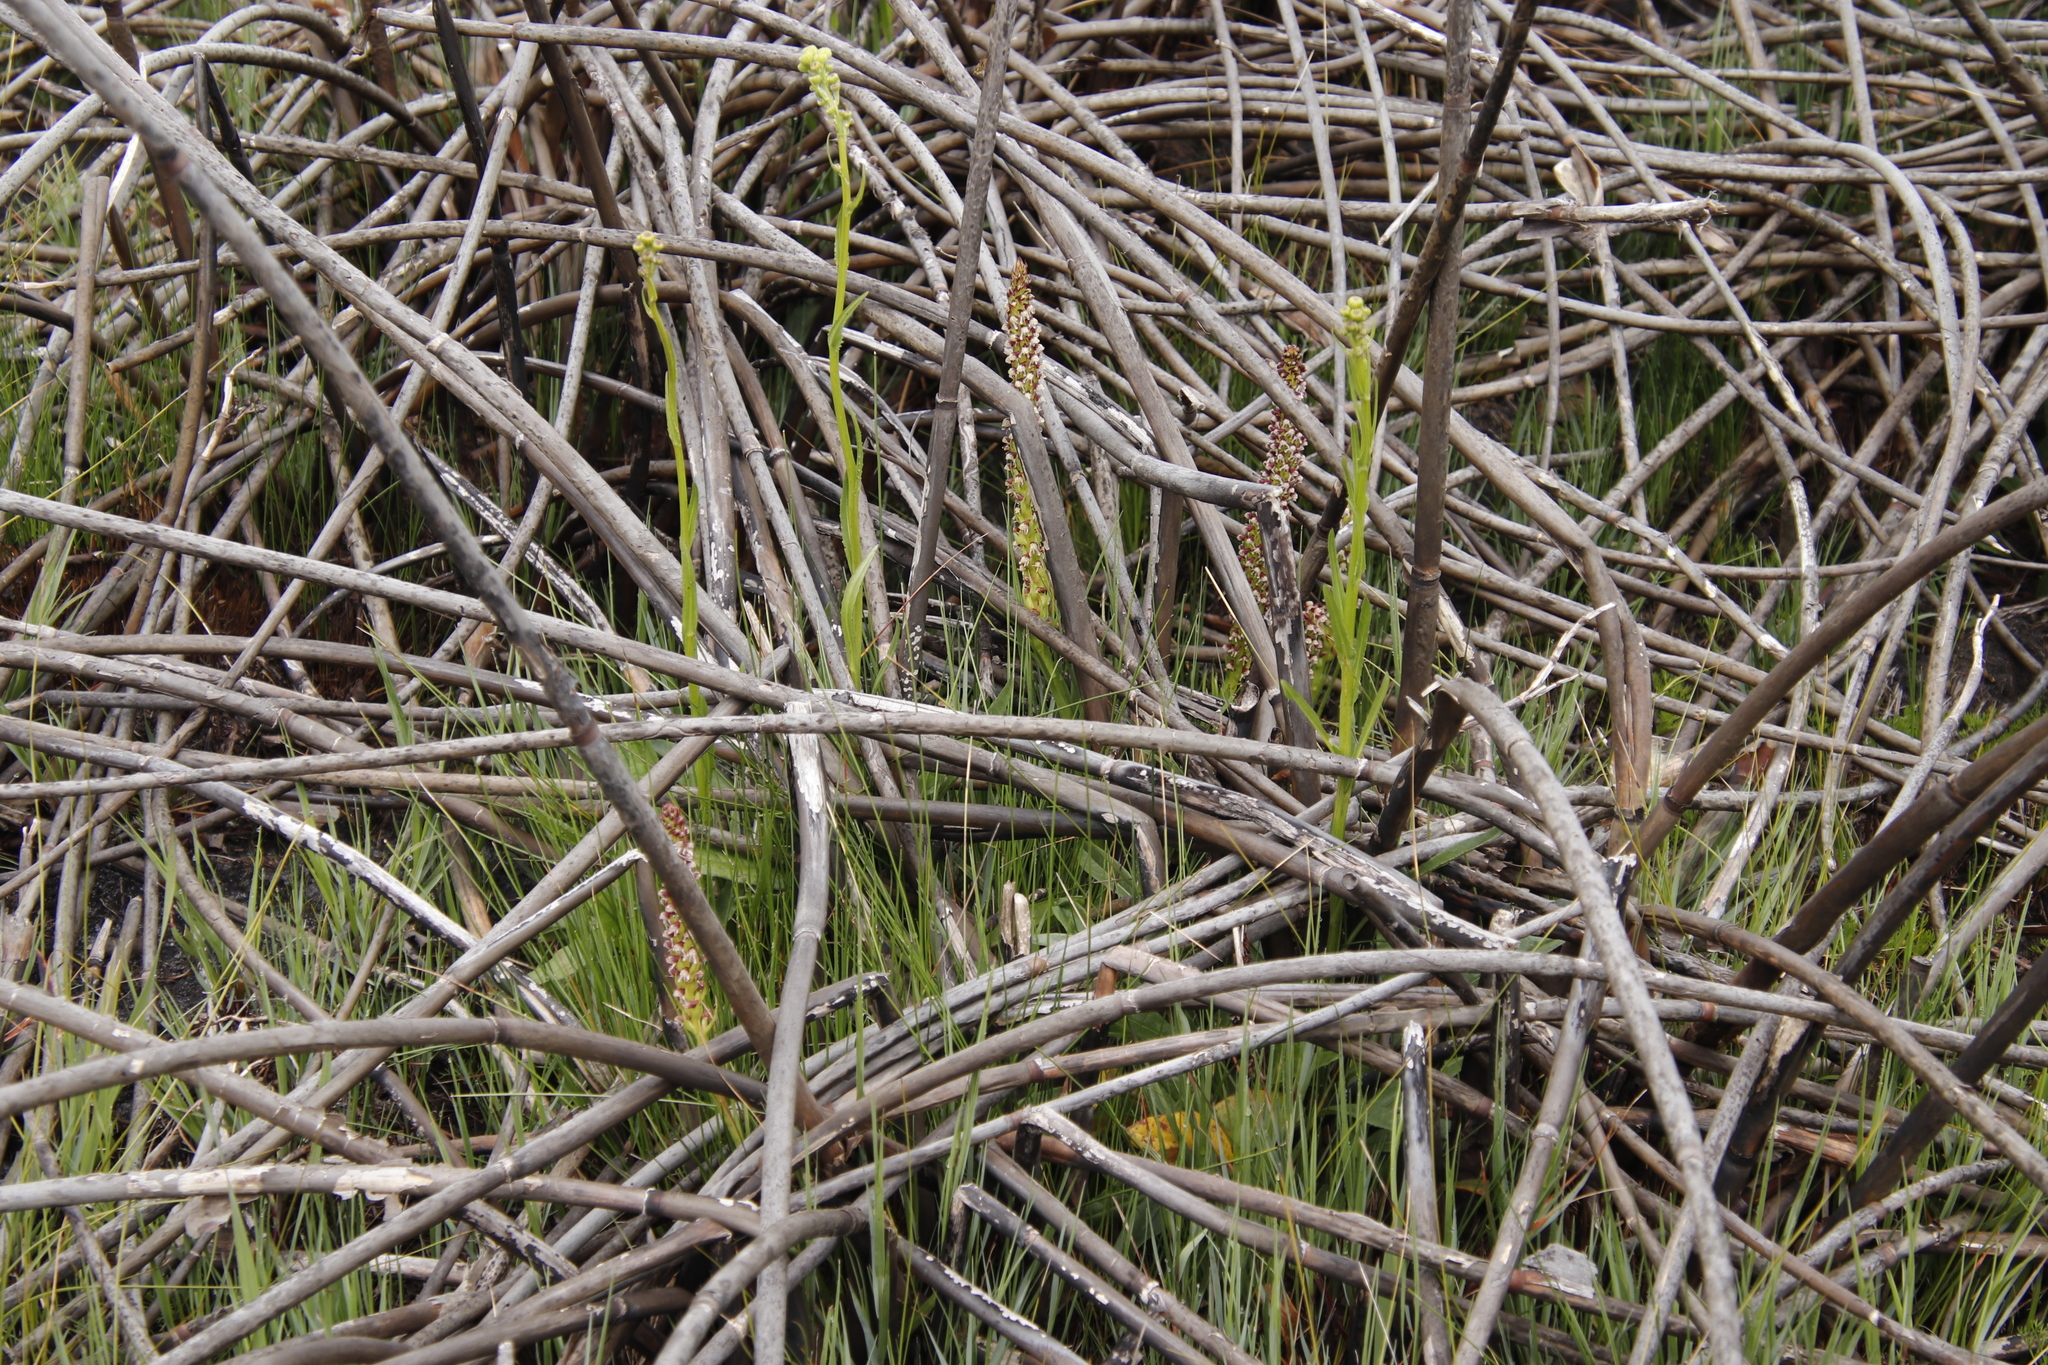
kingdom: Plantae
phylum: Tracheophyta
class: Liliopsida
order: Asparagales
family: Orchidaceae
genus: Disa
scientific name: Disa obtusa
